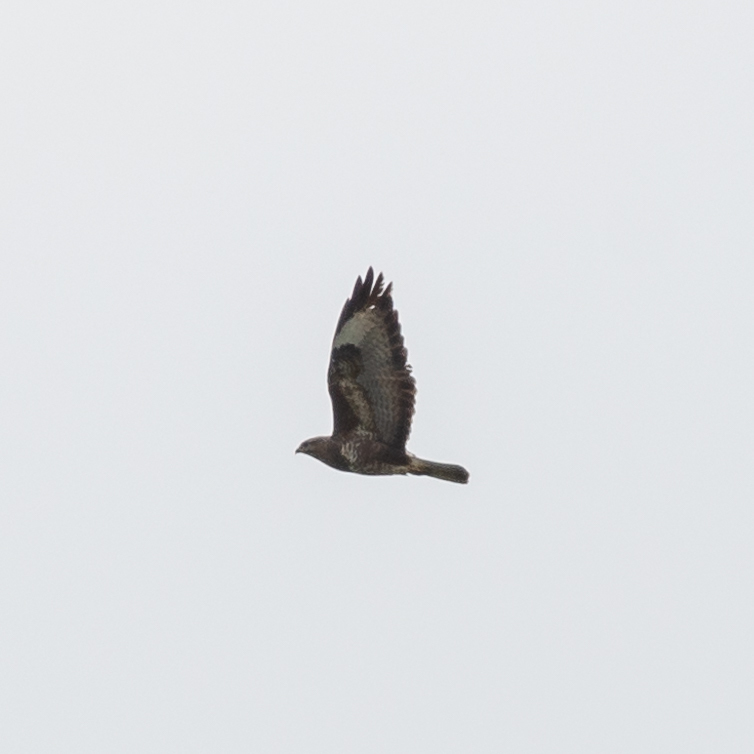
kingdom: Animalia
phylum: Chordata
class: Aves
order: Accipitriformes
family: Accipitridae
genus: Buteo
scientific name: Buteo buteo
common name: Common buzzard
